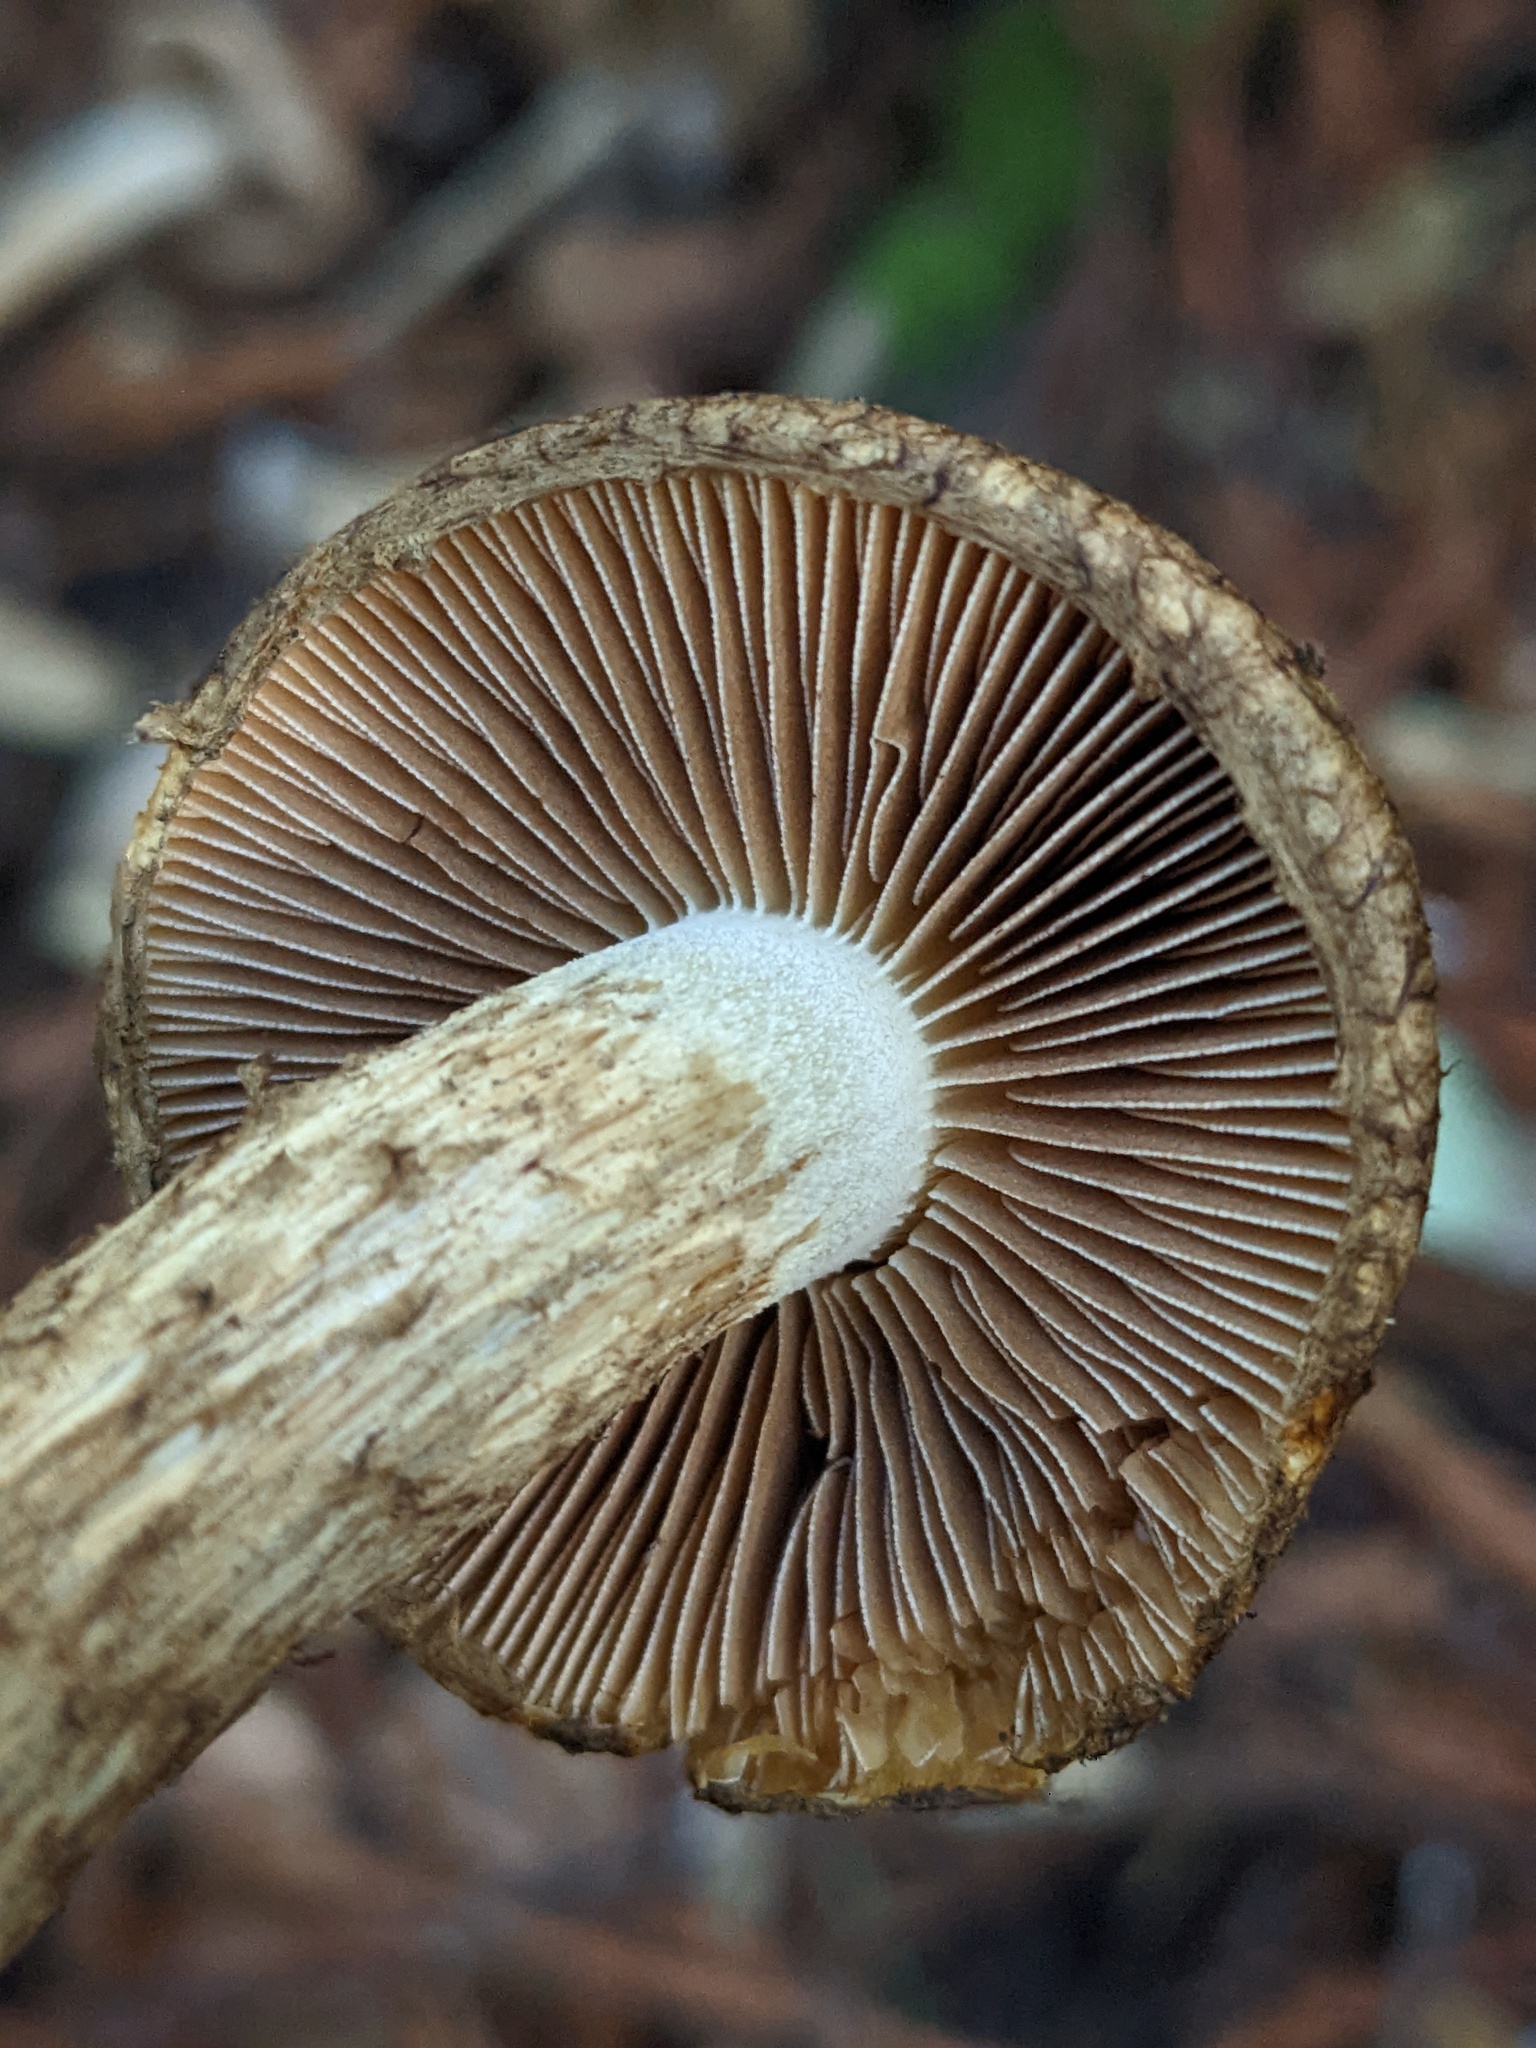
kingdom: Fungi
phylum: Basidiomycota
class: Agaricomycetes
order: Agaricales
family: Inocybaceae
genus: Inosperma
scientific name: Inosperma maximum
